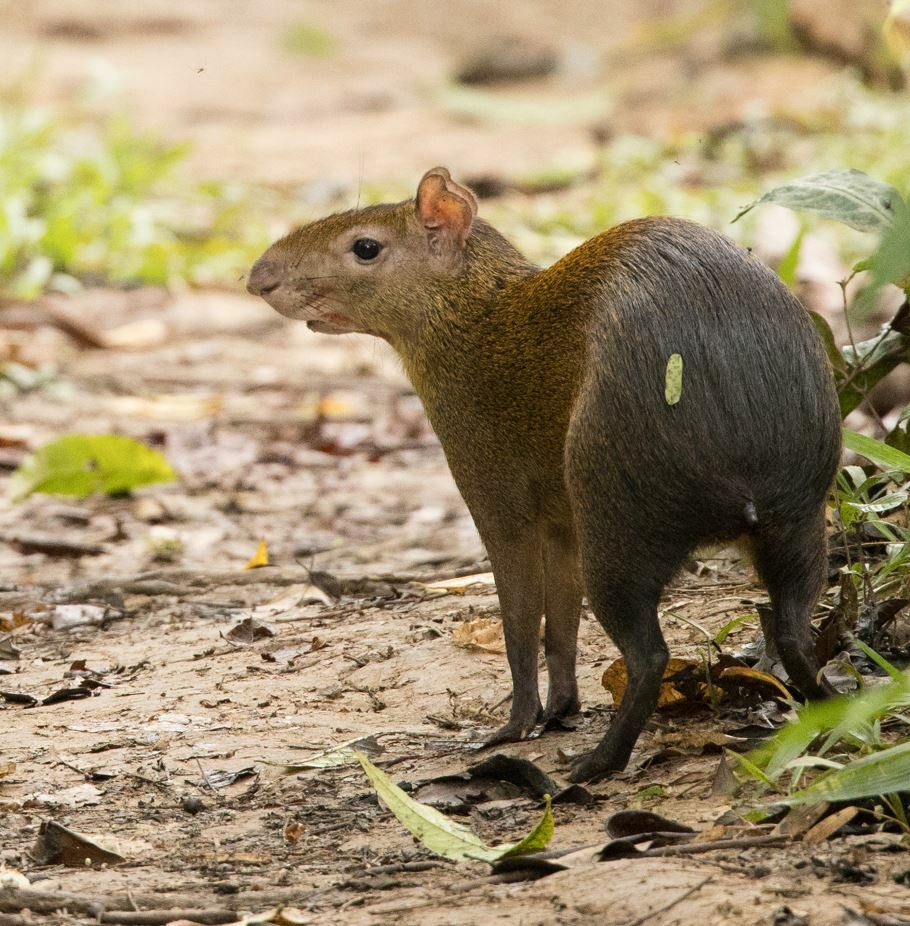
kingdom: Animalia
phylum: Chordata
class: Mammalia
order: Rodentia
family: Dasyproctidae
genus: Dasyprocta
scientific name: Dasyprocta variegata
